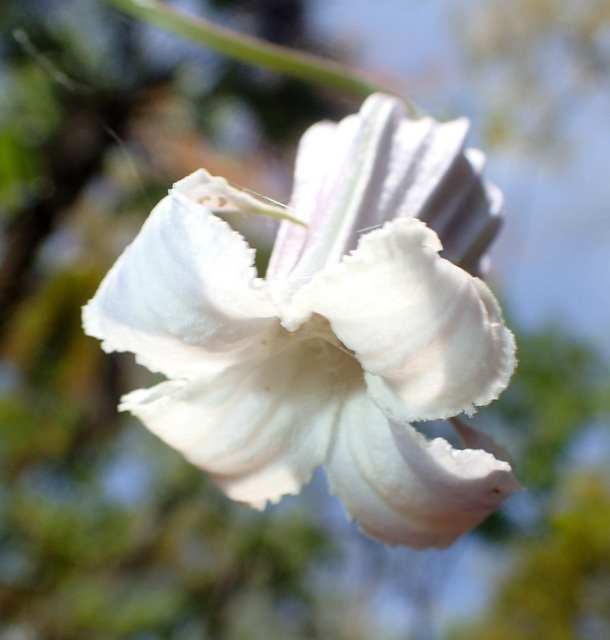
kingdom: Plantae
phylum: Tracheophyta
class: Magnoliopsida
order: Ranunculales
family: Ranunculaceae
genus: Clematis
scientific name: Clematis crispa
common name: Curly clematis
